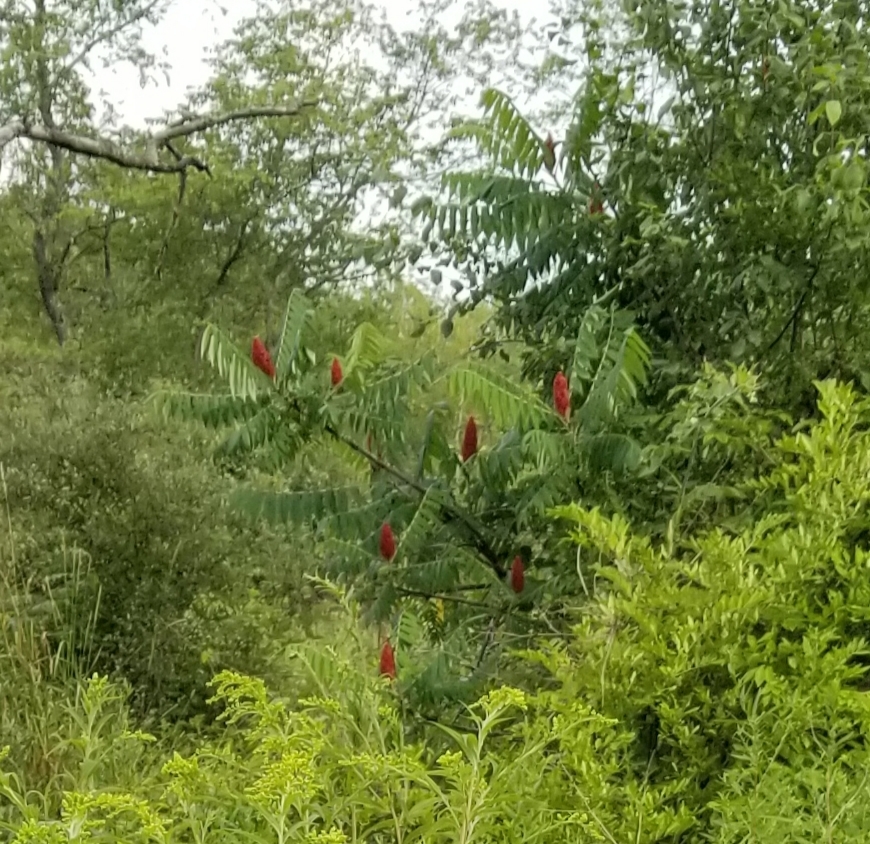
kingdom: Plantae
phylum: Tracheophyta
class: Magnoliopsida
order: Sapindales
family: Anacardiaceae
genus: Rhus
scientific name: Rhus typhina
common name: Staghorn sumac
